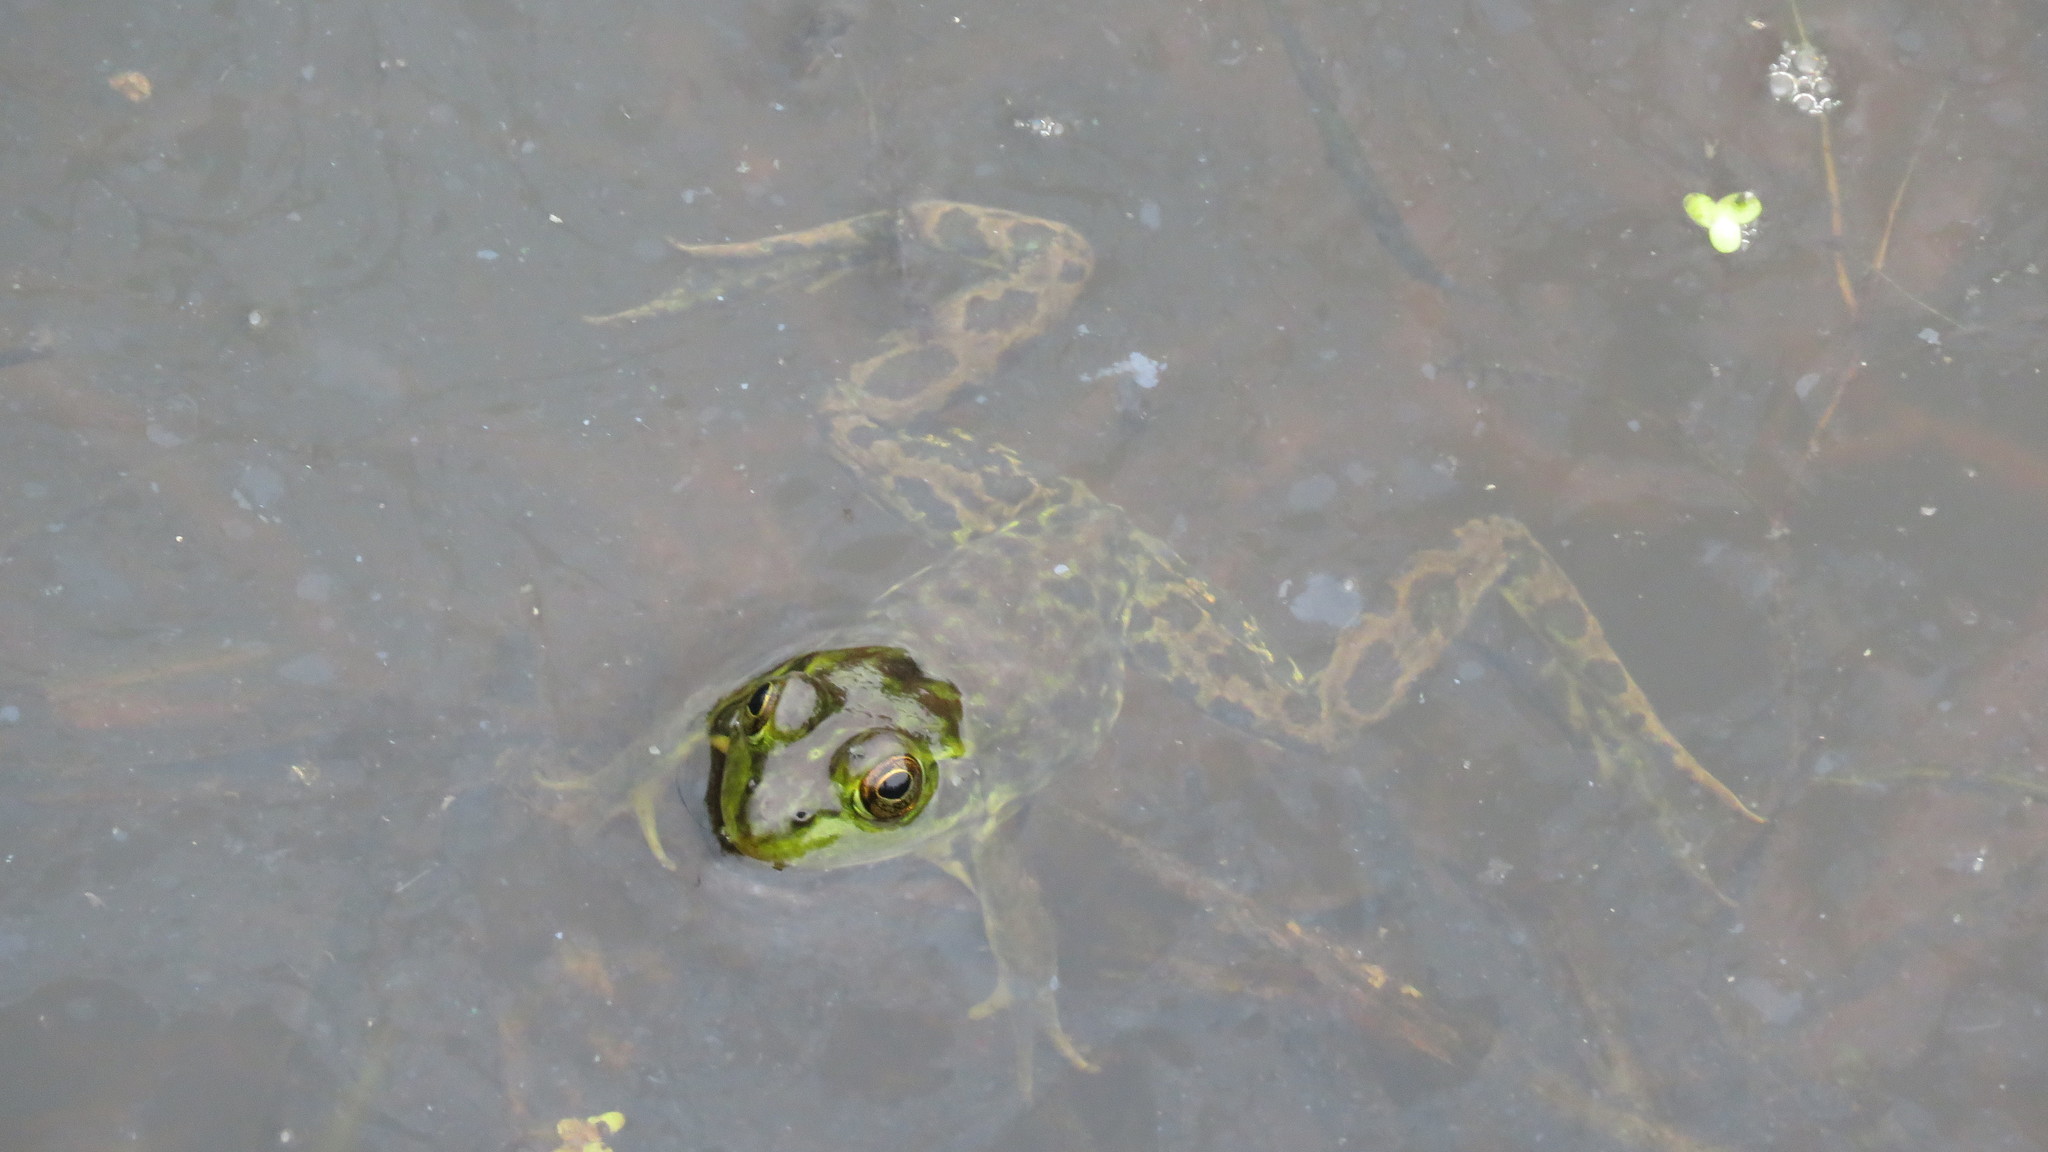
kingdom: Animalia
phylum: Chordata
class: Amphibia
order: Anura
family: Ranidae
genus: Lithobates
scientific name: Lithobates septentrionalis
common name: Mink frog
